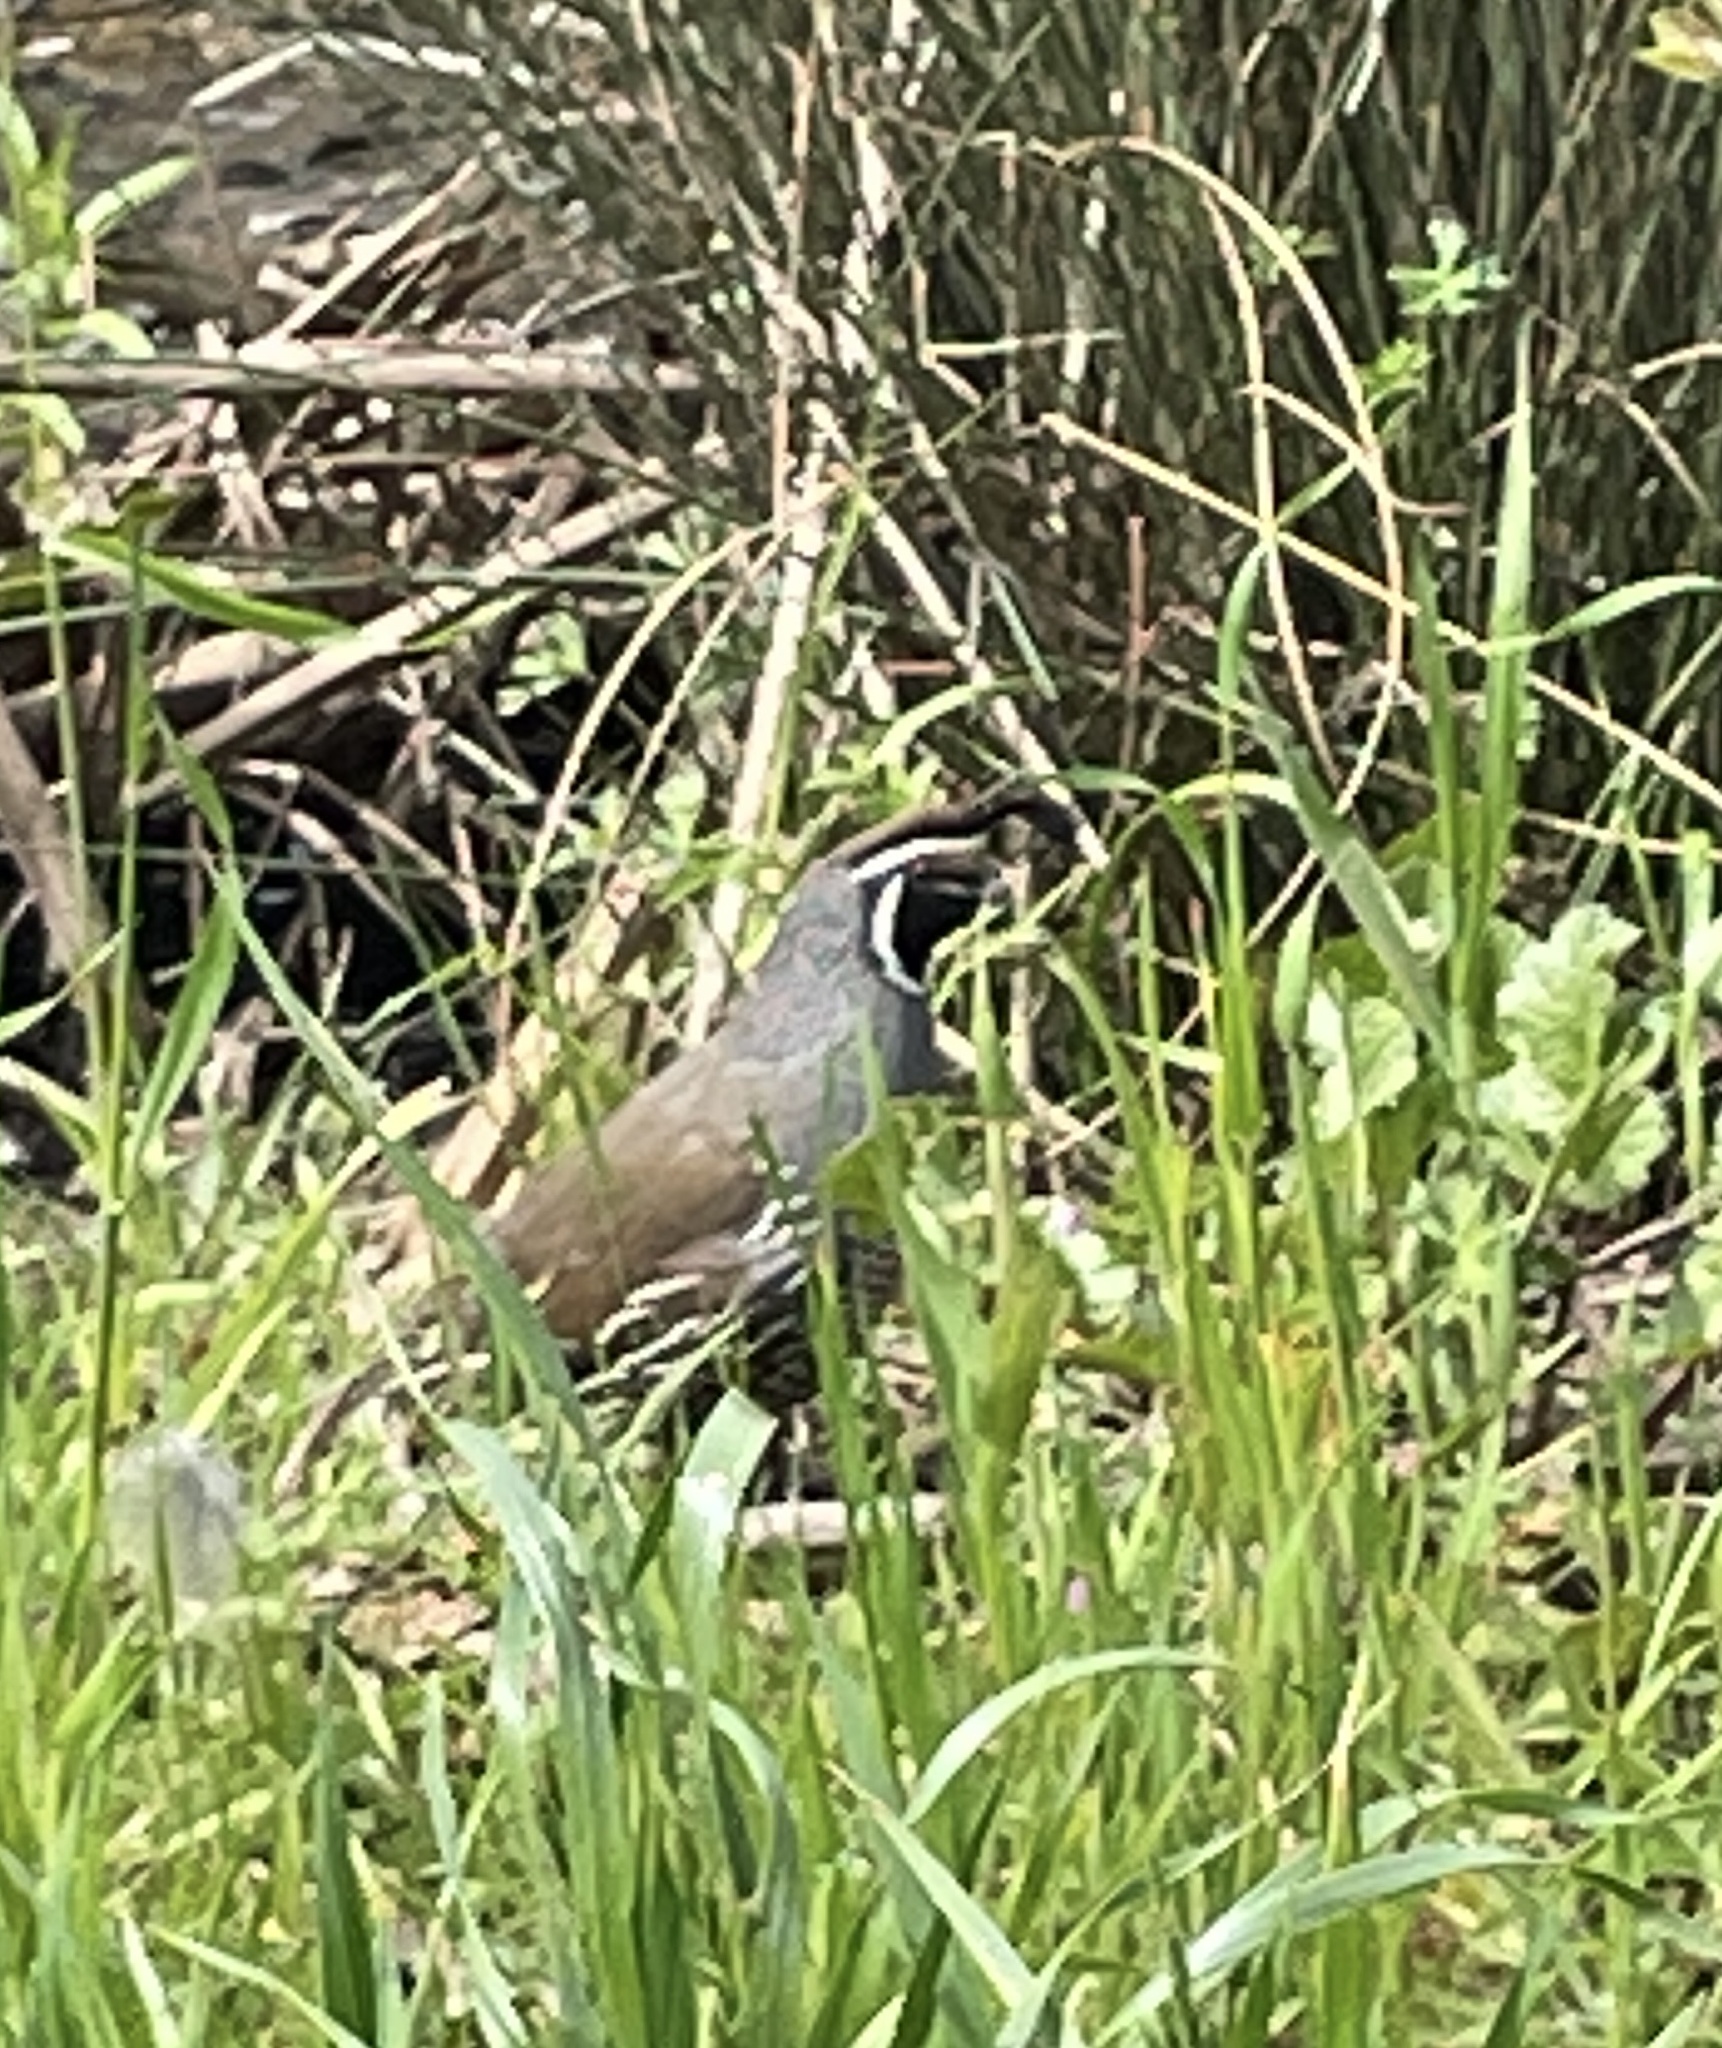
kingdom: Animalia
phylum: Chordata
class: Aves
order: Galliformes
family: Odontophoridae
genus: Callipepla
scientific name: Callipepla californica
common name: California quail
